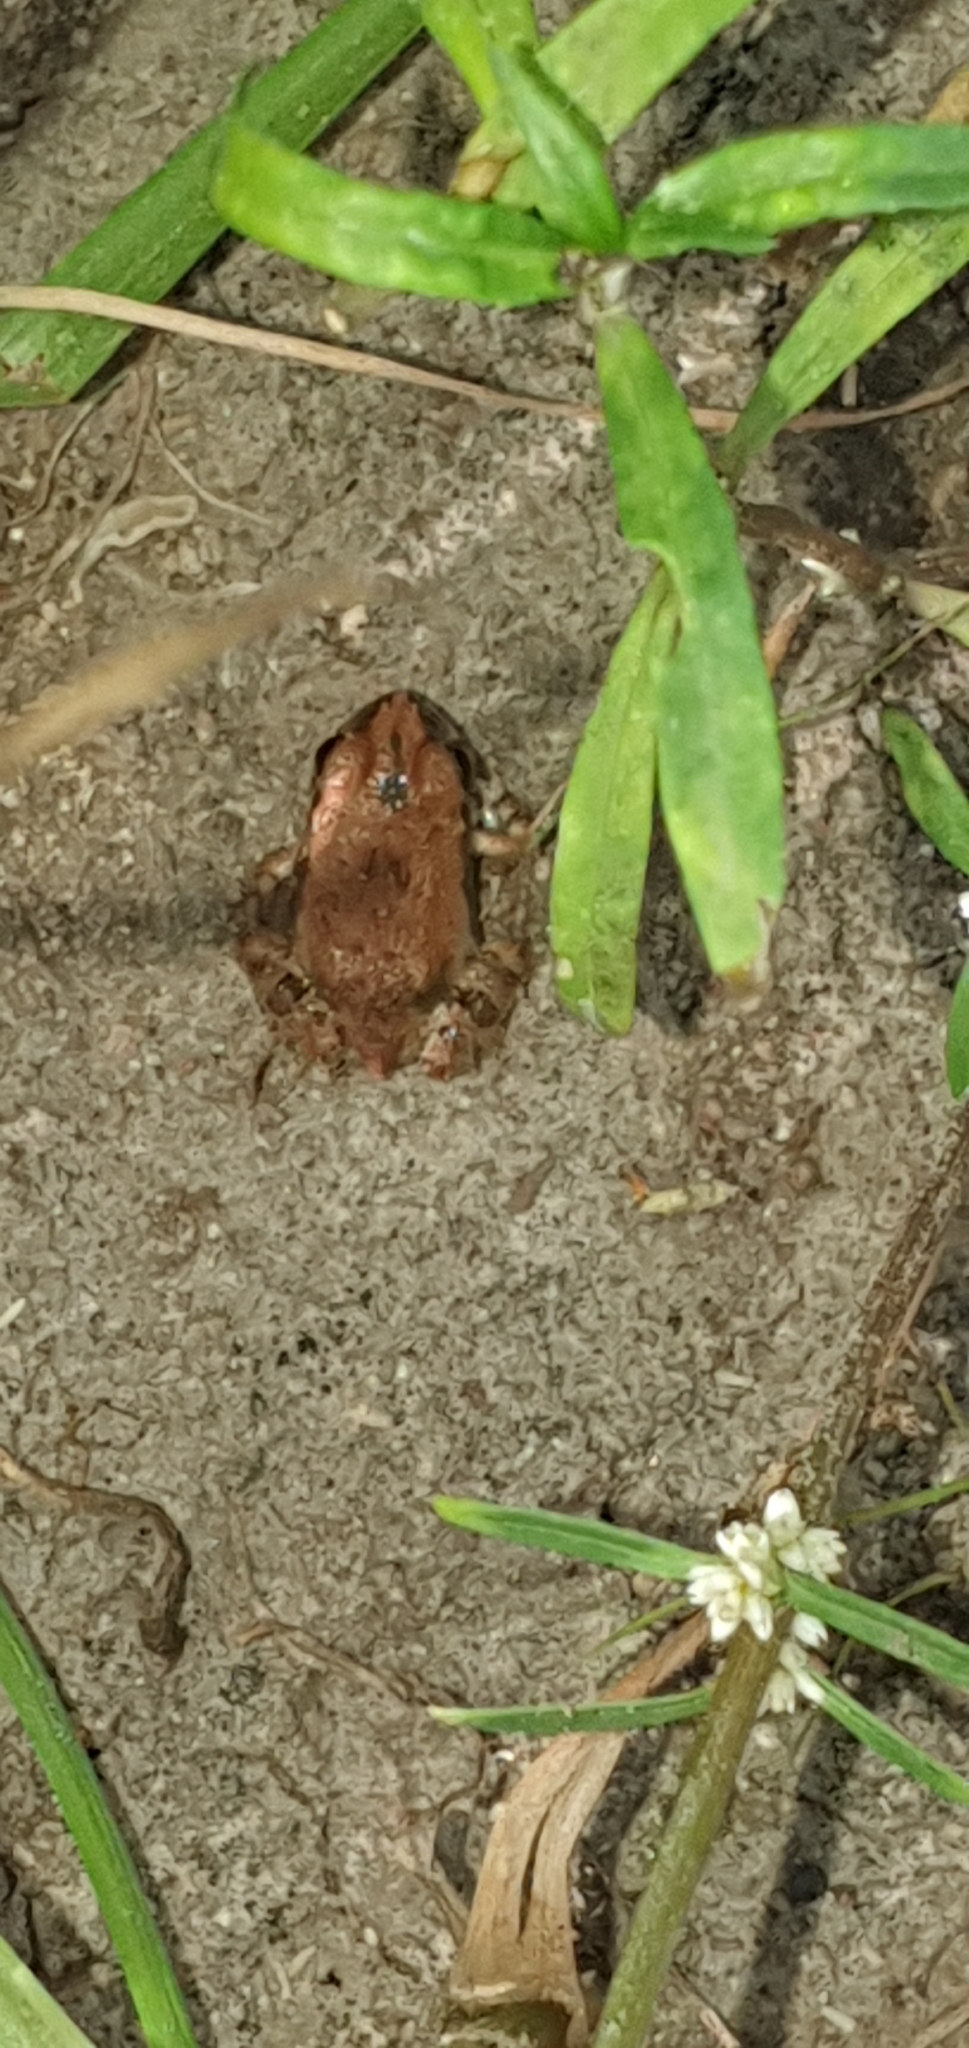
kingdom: Animalia
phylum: Chordata
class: Amphibia
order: Anura
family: Limnodynastidae
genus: Platyplectrum
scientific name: Platyplectrum ornatum
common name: Ornate burrowing frog
